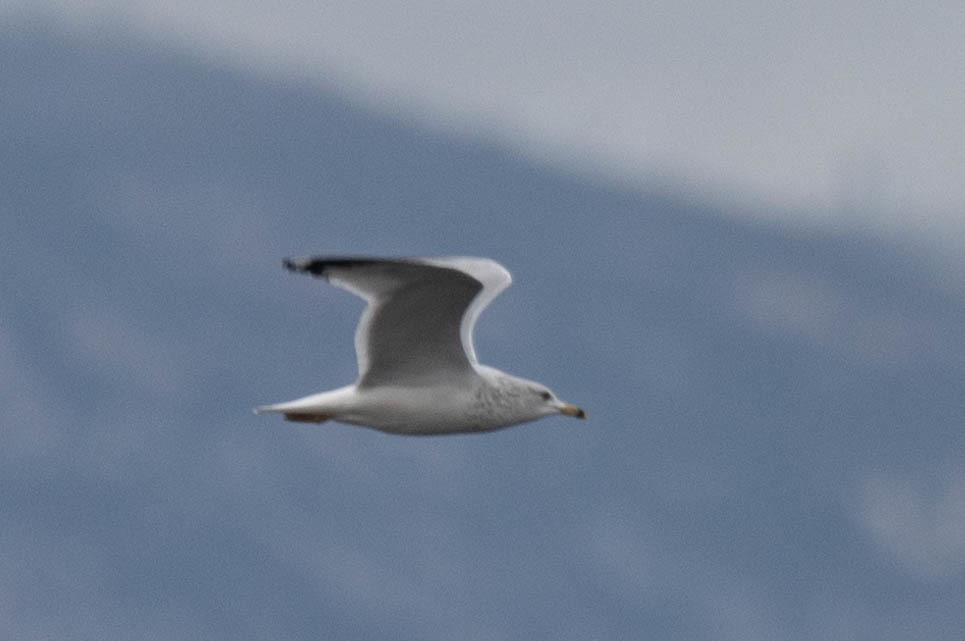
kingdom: Animalia
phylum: Chordata
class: Aves
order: Charadriiformes
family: Laridae
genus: Larus
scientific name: Larus delawarensis
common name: Ring-billed gull
